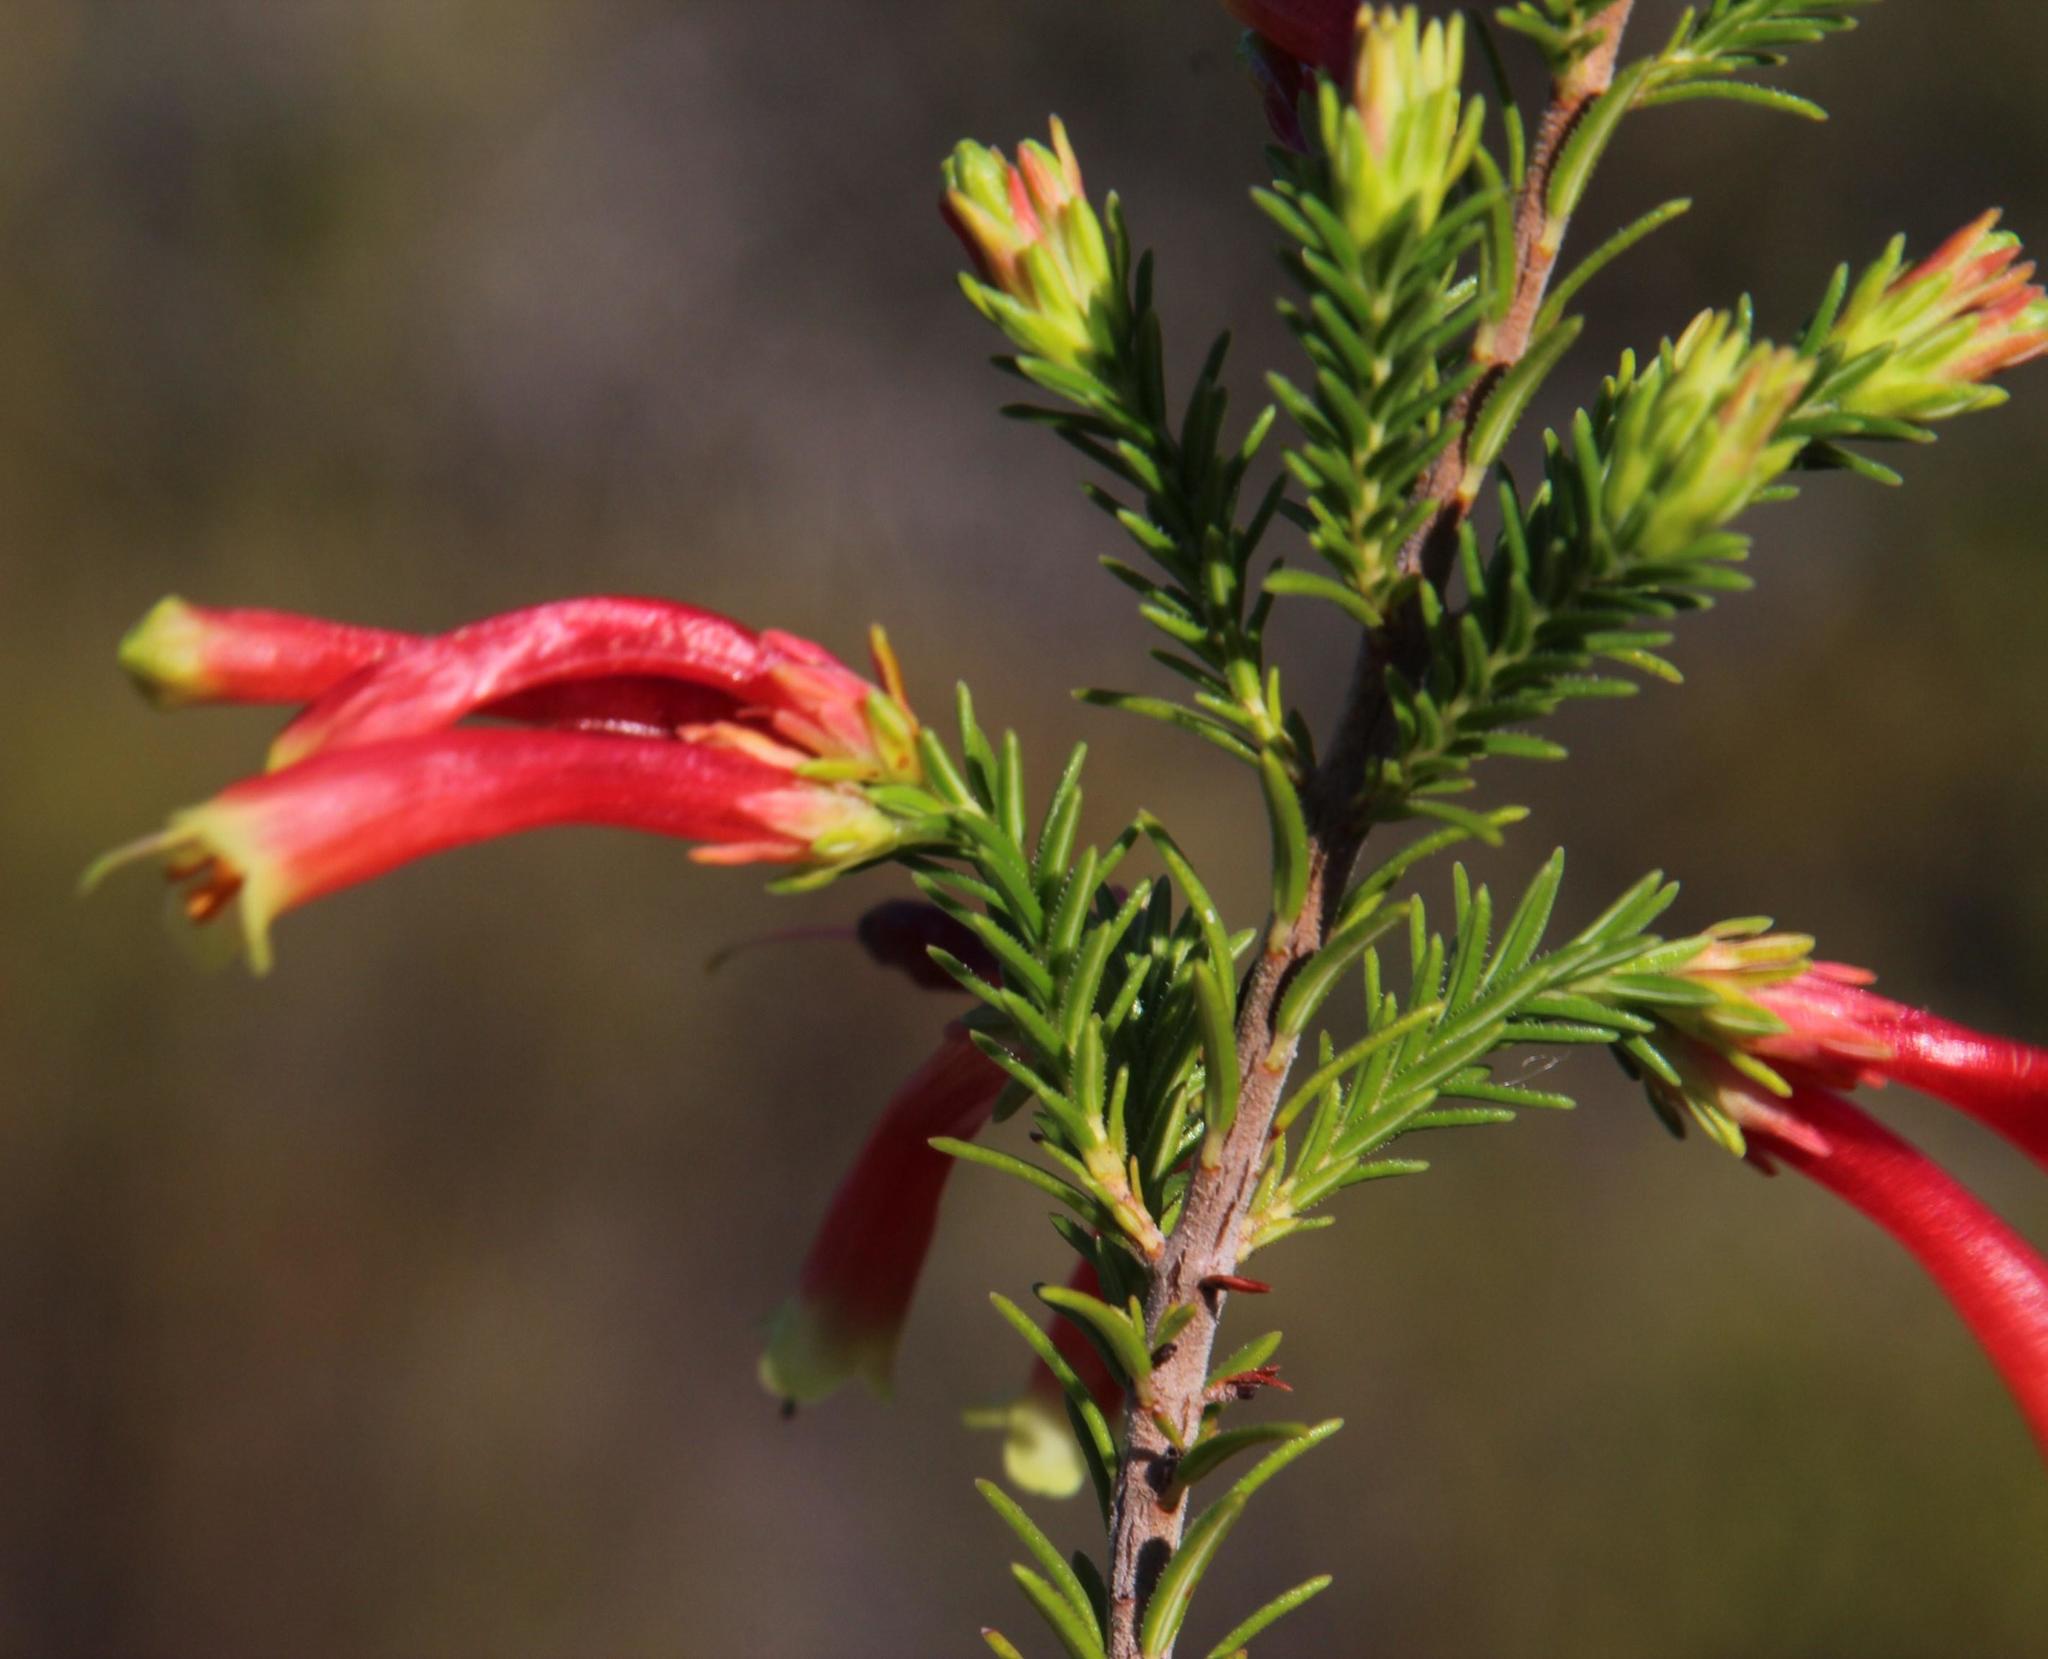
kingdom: Plantae
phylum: Tracheophyta
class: Magnoliopsida
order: Ericales
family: Ericaceae
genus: Erica
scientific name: Erica versicolor
